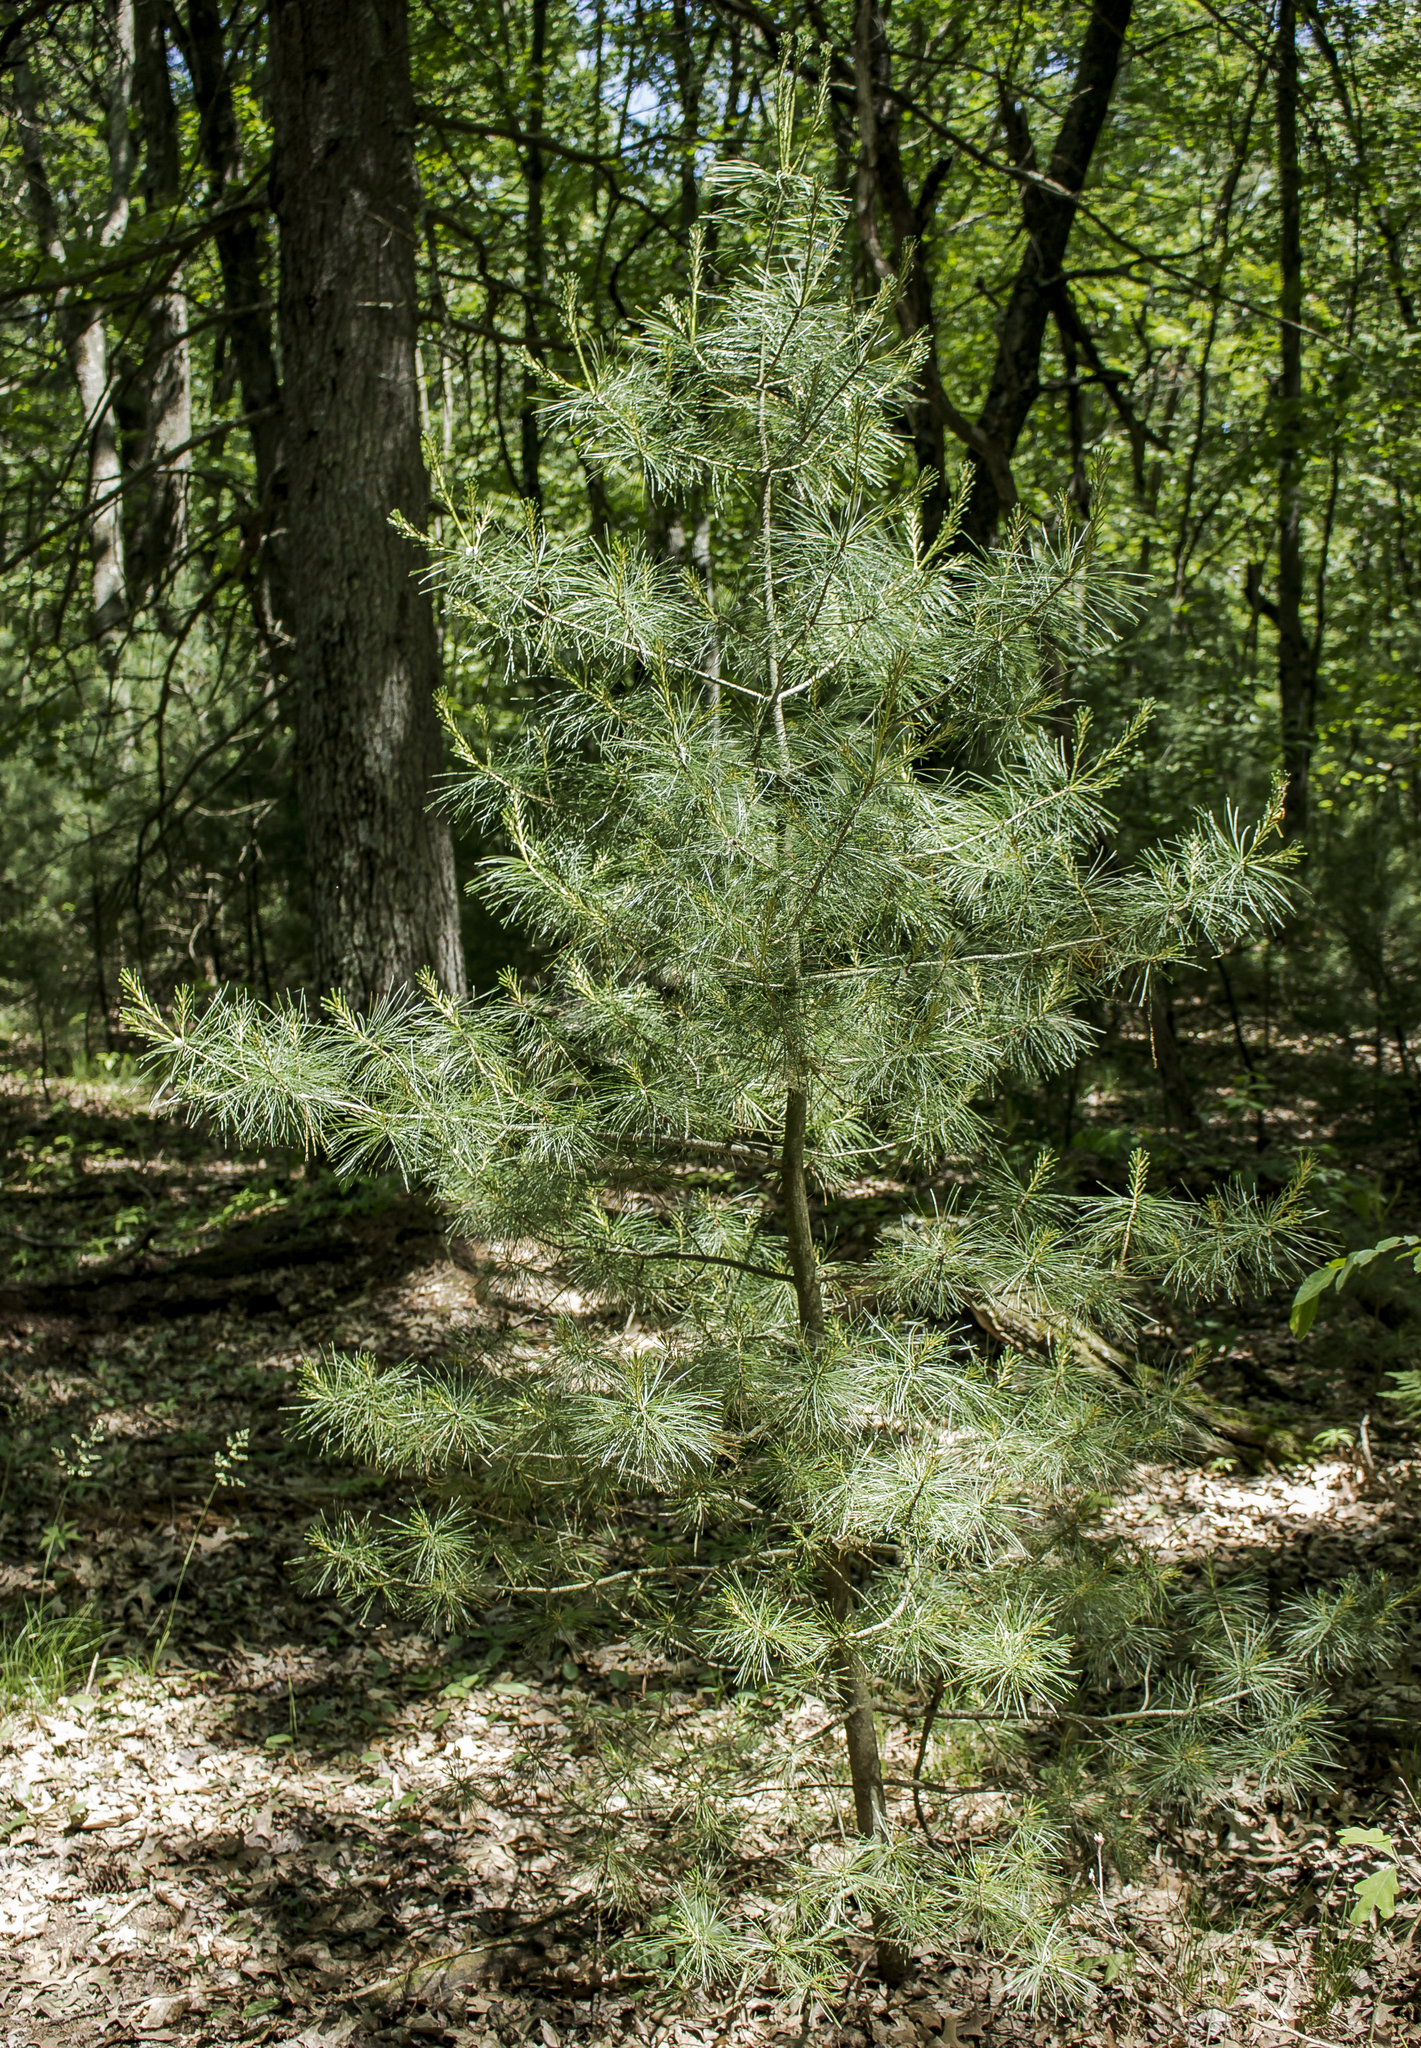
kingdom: Plantae
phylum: Tracheophyta
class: Pinopsida
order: Pinales
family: Pinaceae
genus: Pinus
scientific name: Pinus strobus
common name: Weymouth pine
